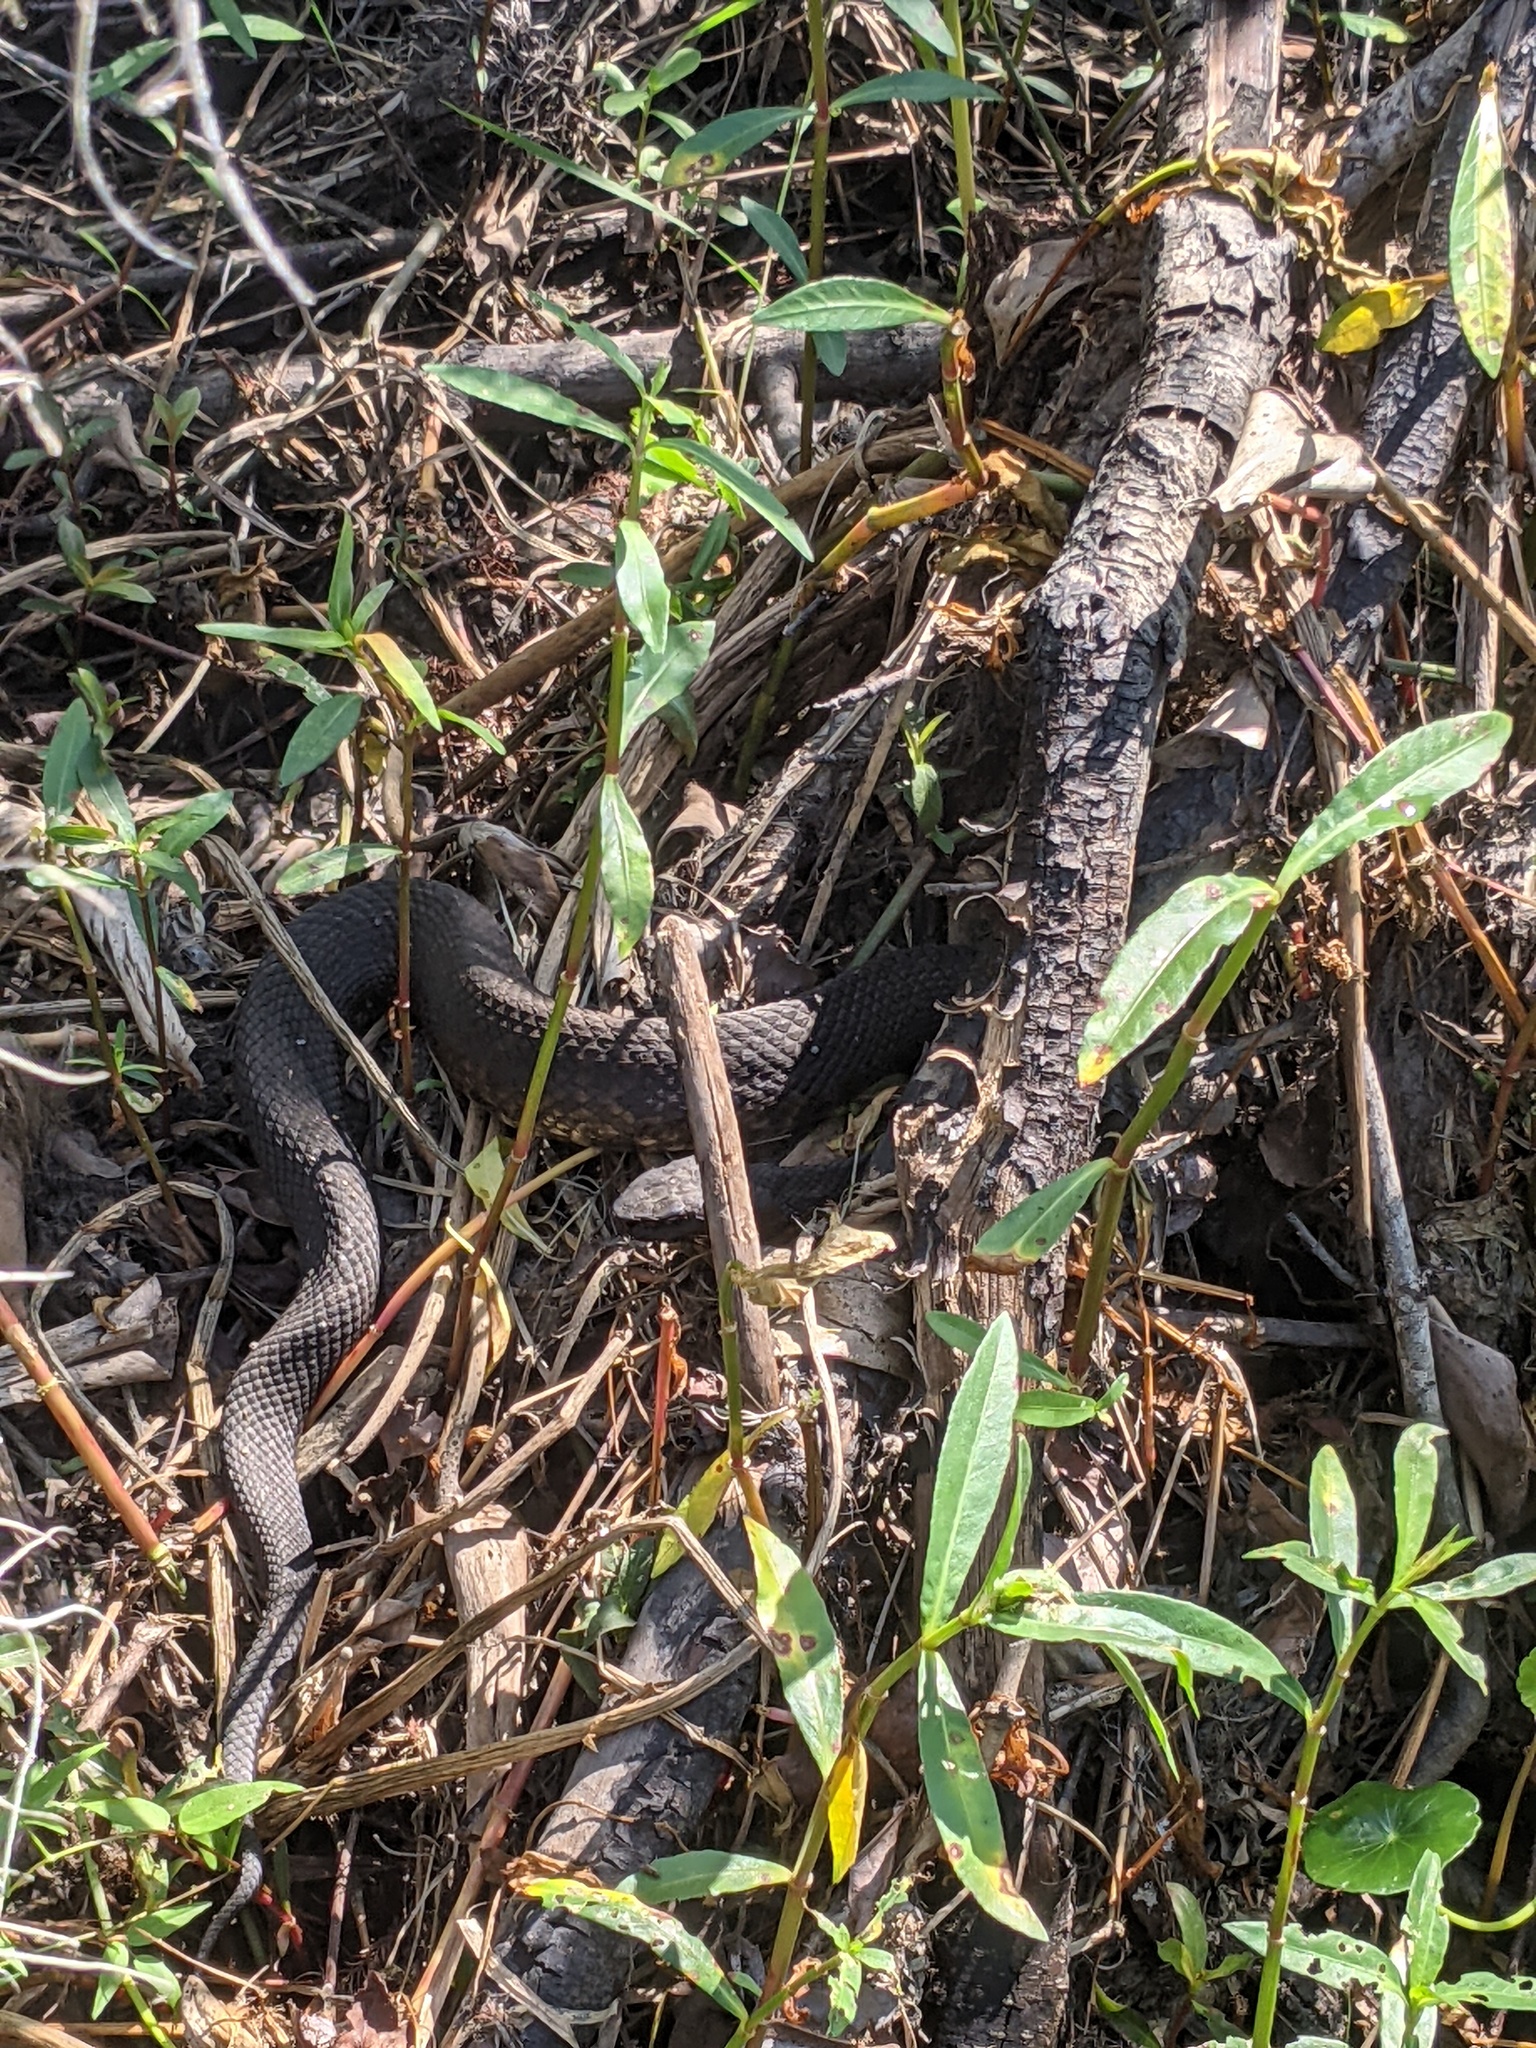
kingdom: Animalia
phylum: Chordata
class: Squamata
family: Viperidae
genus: Agkistrodon
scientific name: Agkistrodon piscivorus
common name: Cottonmouth
